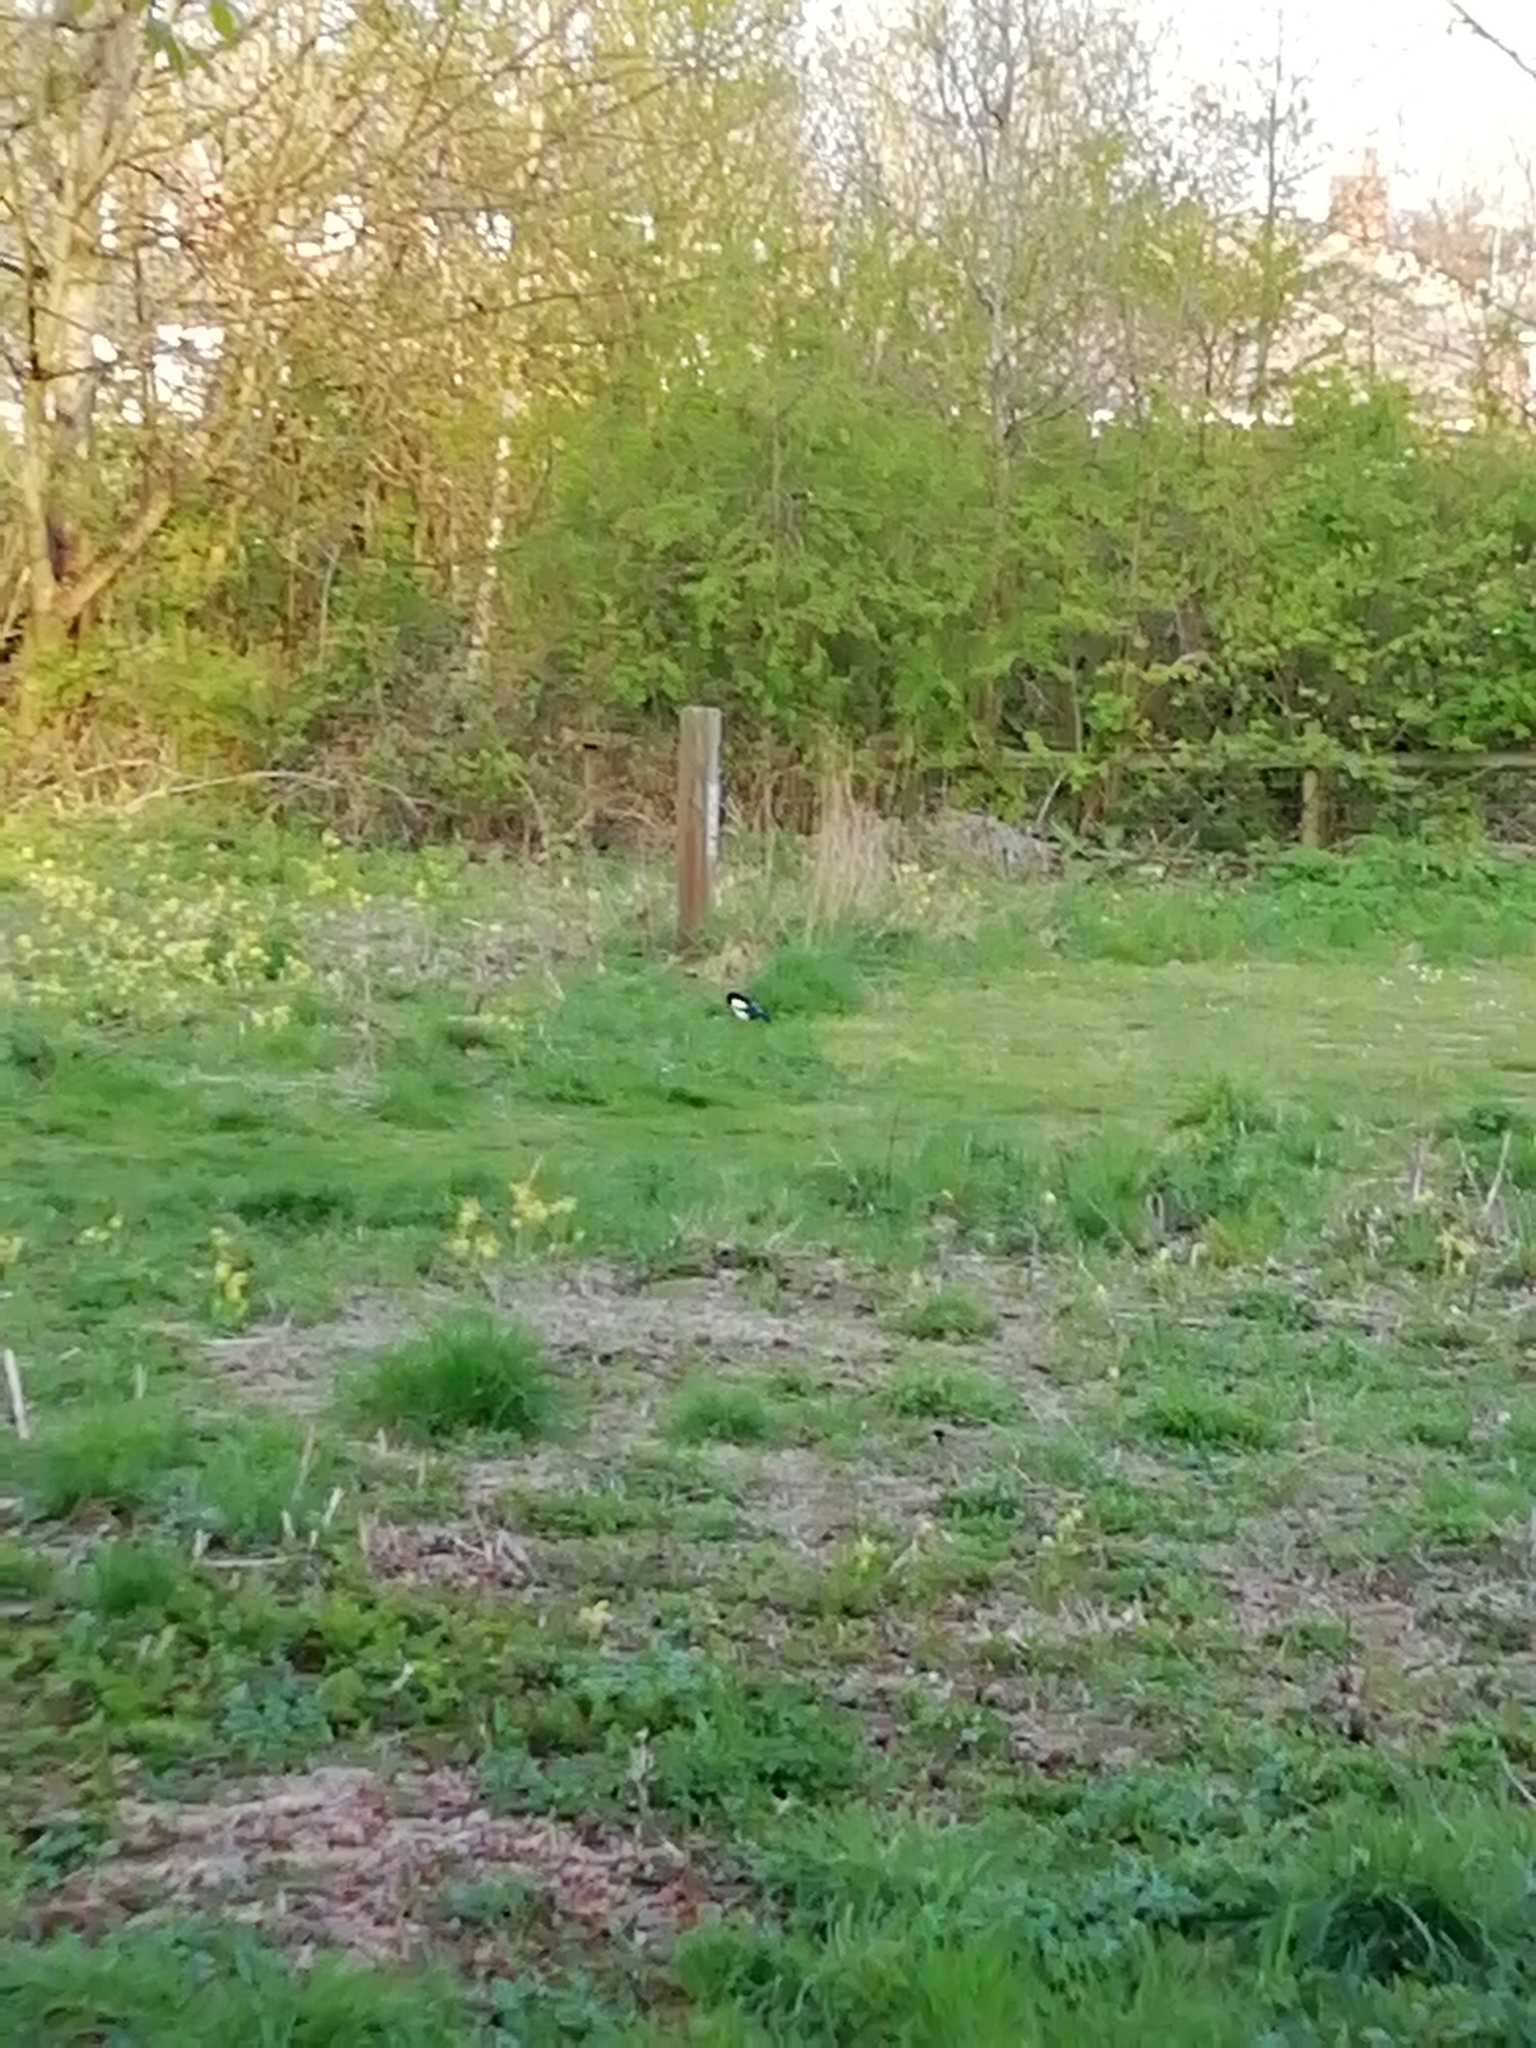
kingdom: Animalia
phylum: Chordata
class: Aves
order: Passeriformes
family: Corvidae
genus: Pica
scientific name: Pica pica
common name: Eurasian magpie
